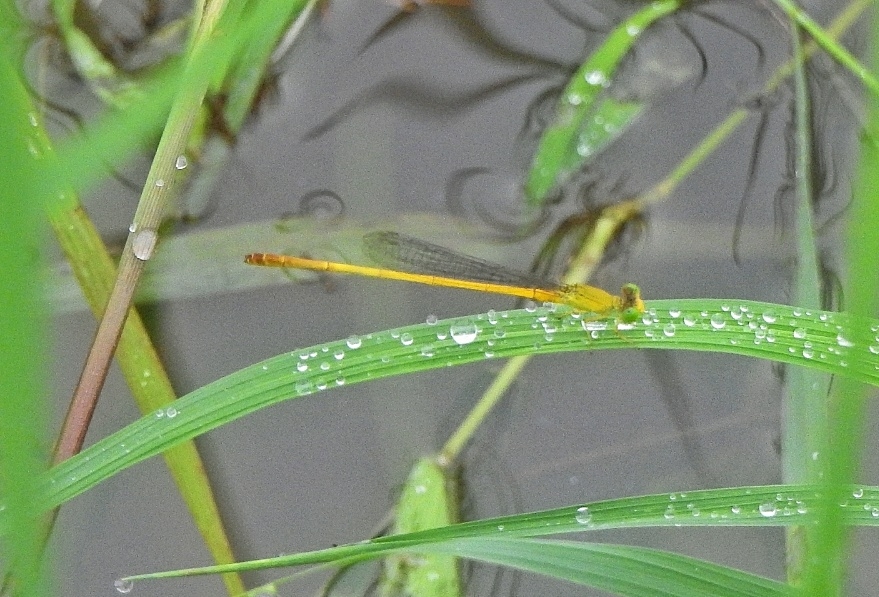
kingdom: Animalia
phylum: Arthropoda
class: Insecta
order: Odonata
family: Coenagrionidae
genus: Ceriagrion
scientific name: Ceriagrion chromothorax
